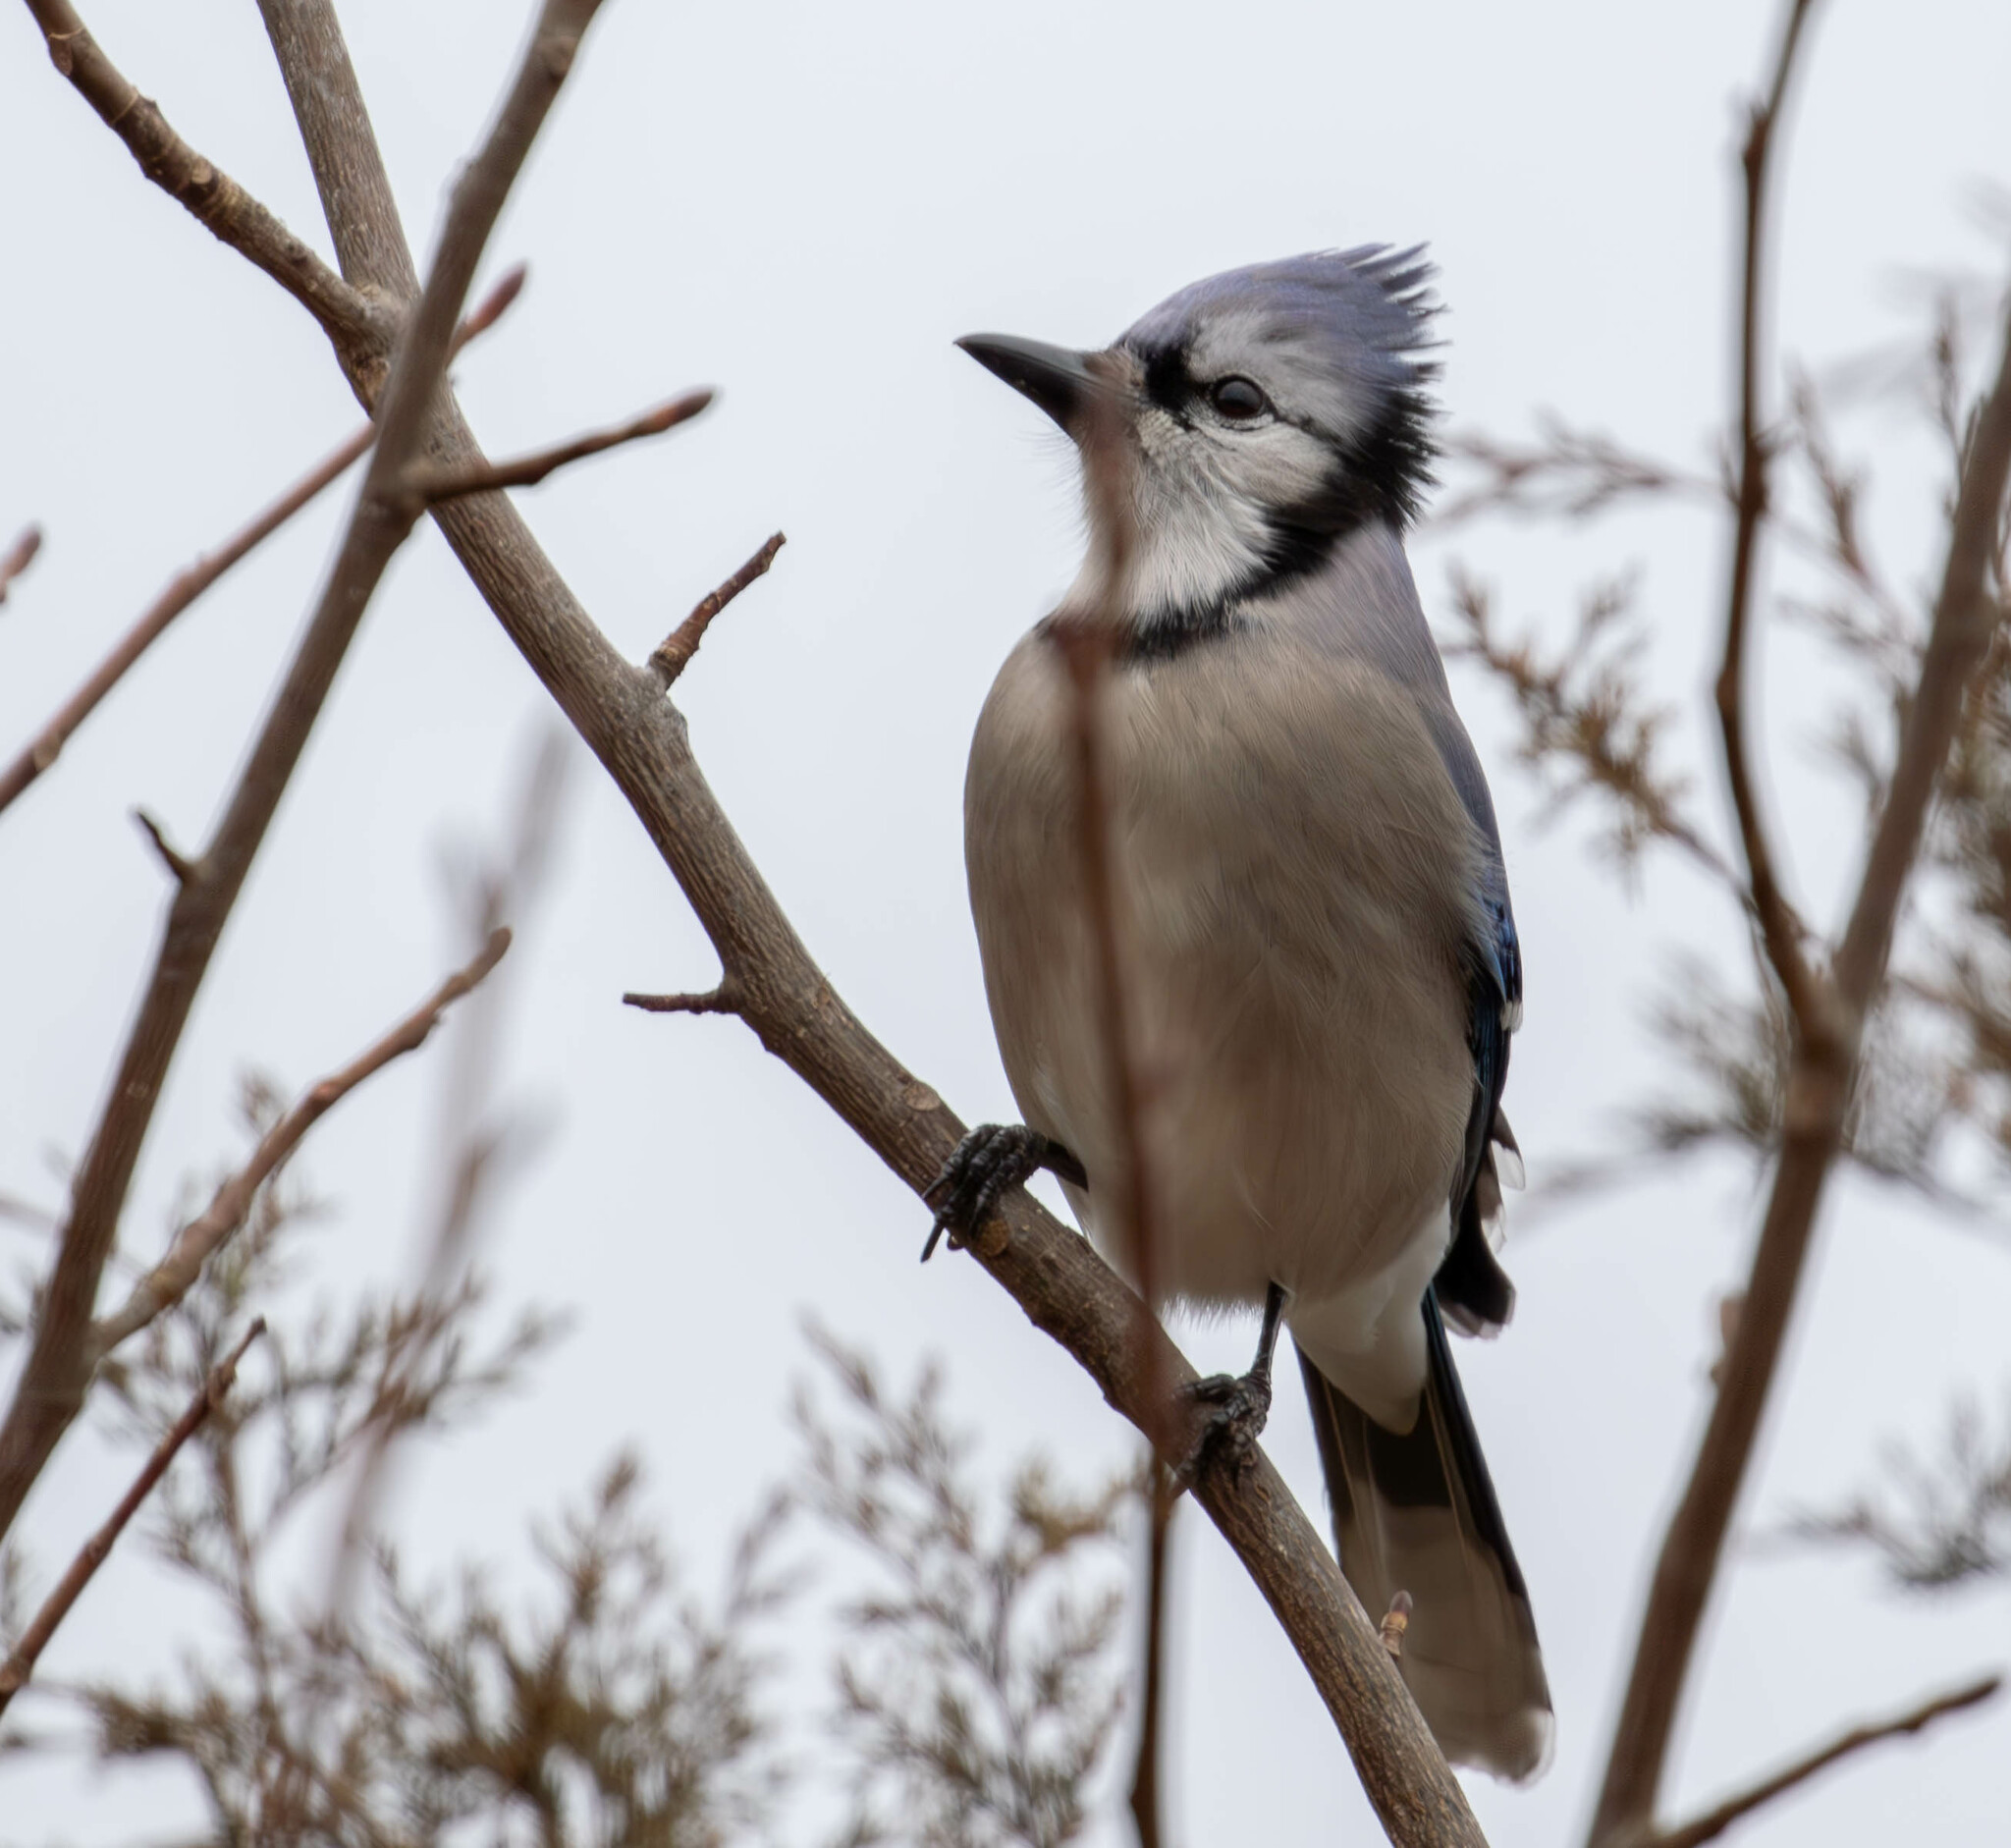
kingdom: Animalia
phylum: Chordata
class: Aves
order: Passeriformes
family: Corvidae
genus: Cyanocitta
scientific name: Cyanocitta cristata
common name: Blue jay
